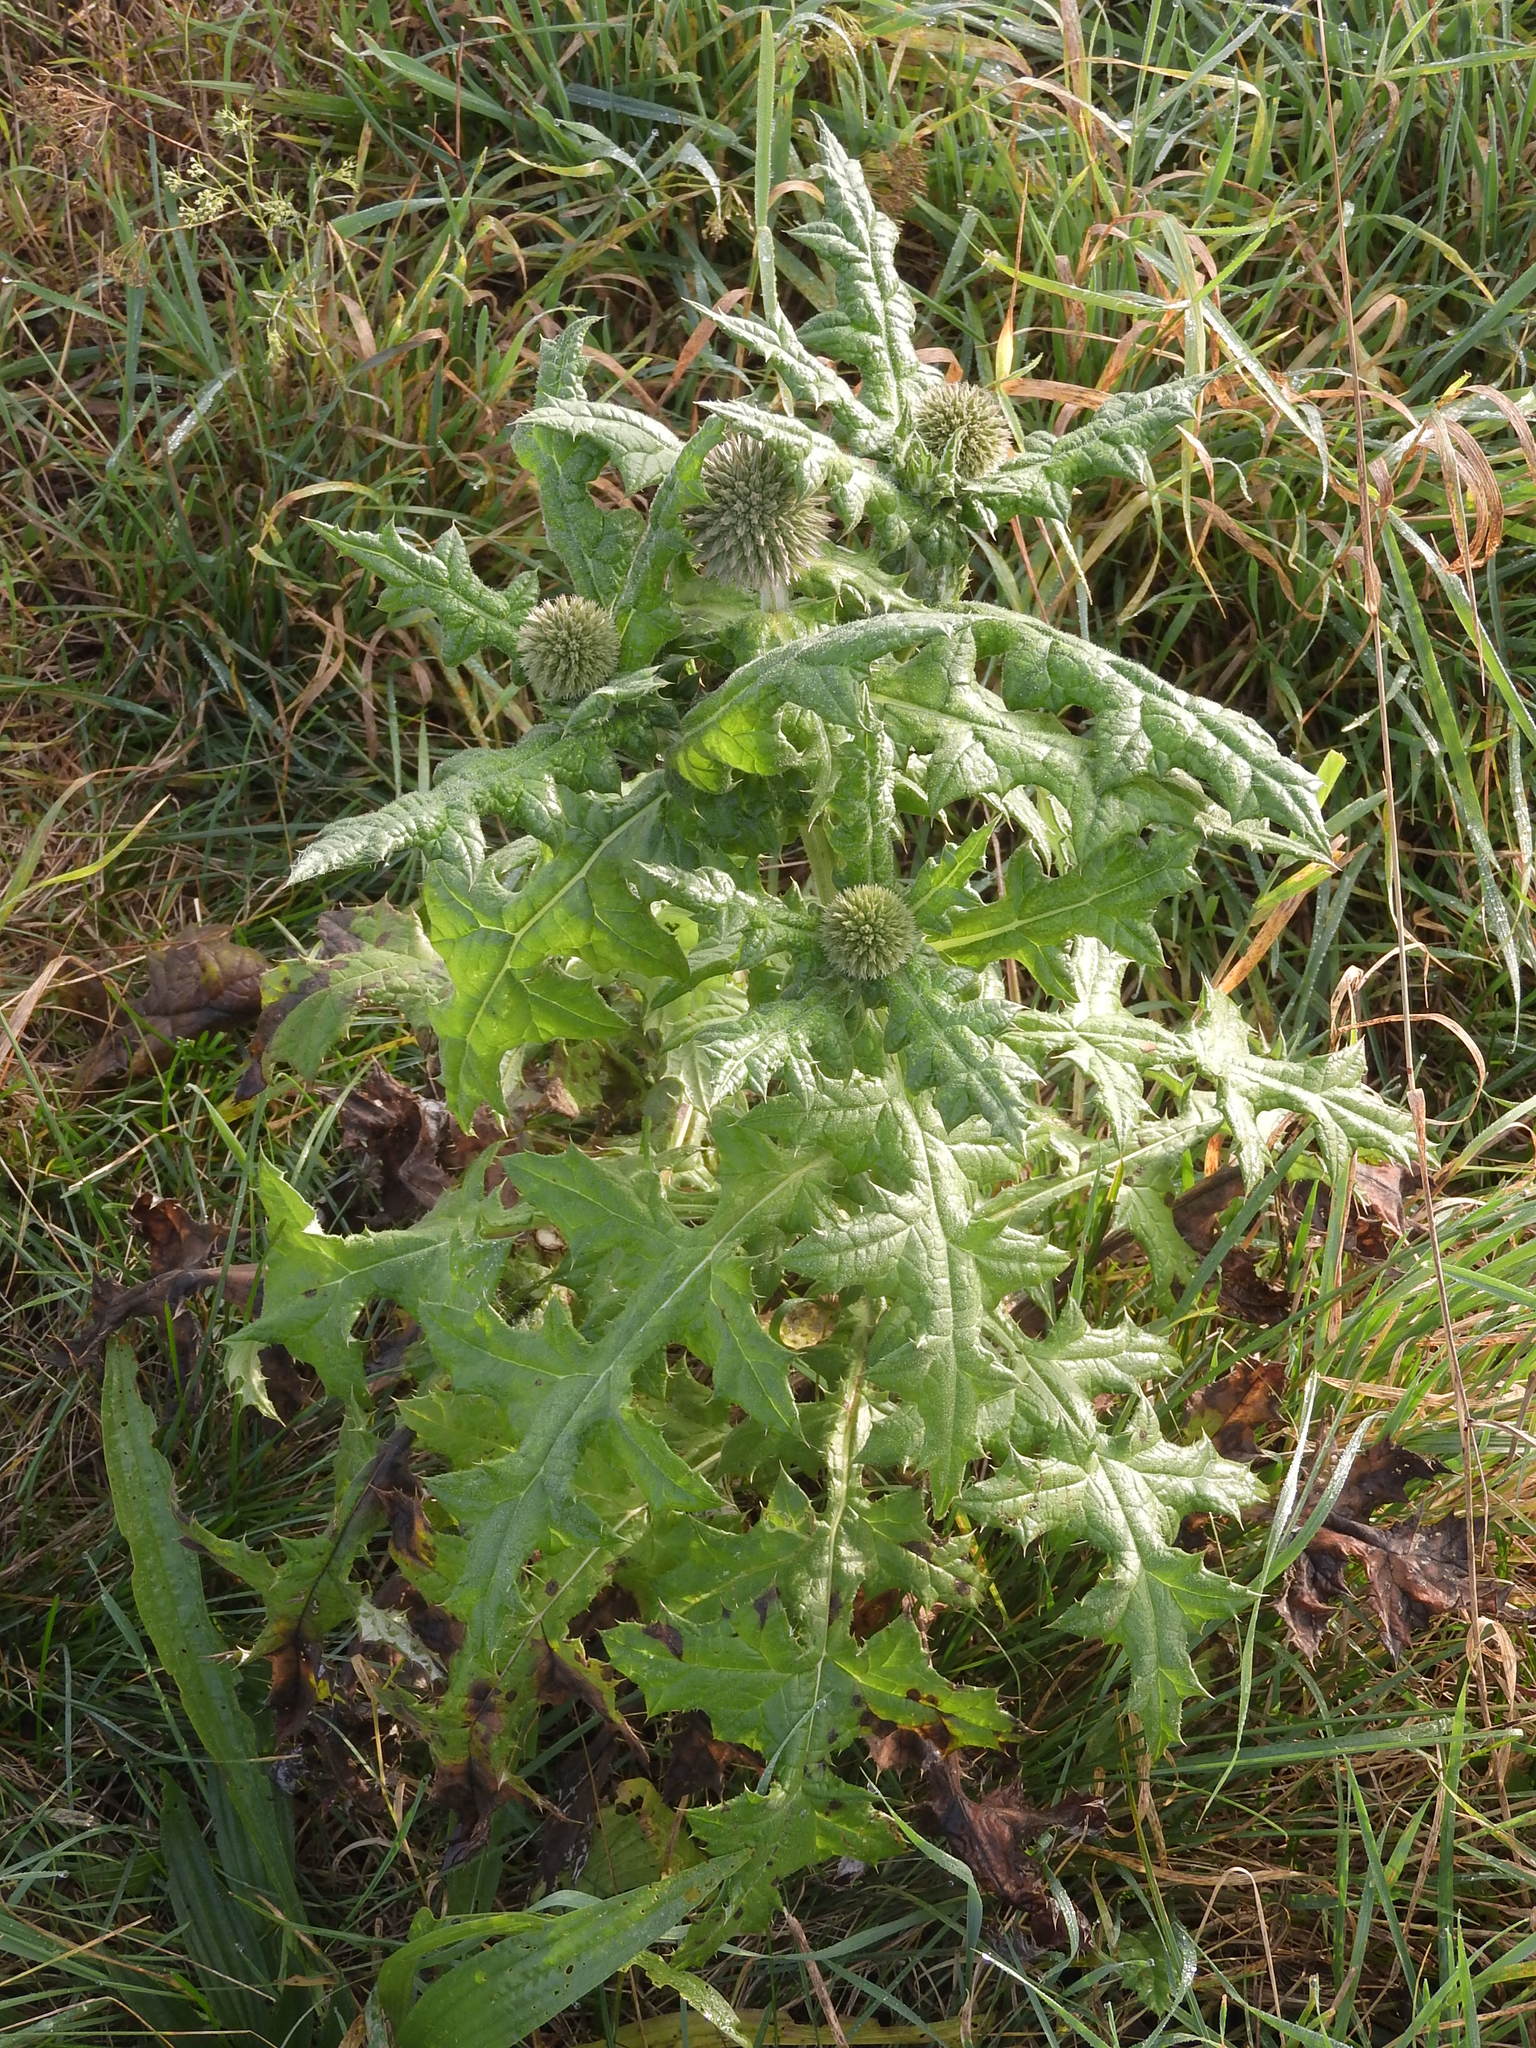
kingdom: Plantae
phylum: Tracheophyta
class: Magnoliopsida
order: Asterales
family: Asteraceae
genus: Echinops
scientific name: Echinops sphaerocephalus
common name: Glandular globe-thistle
